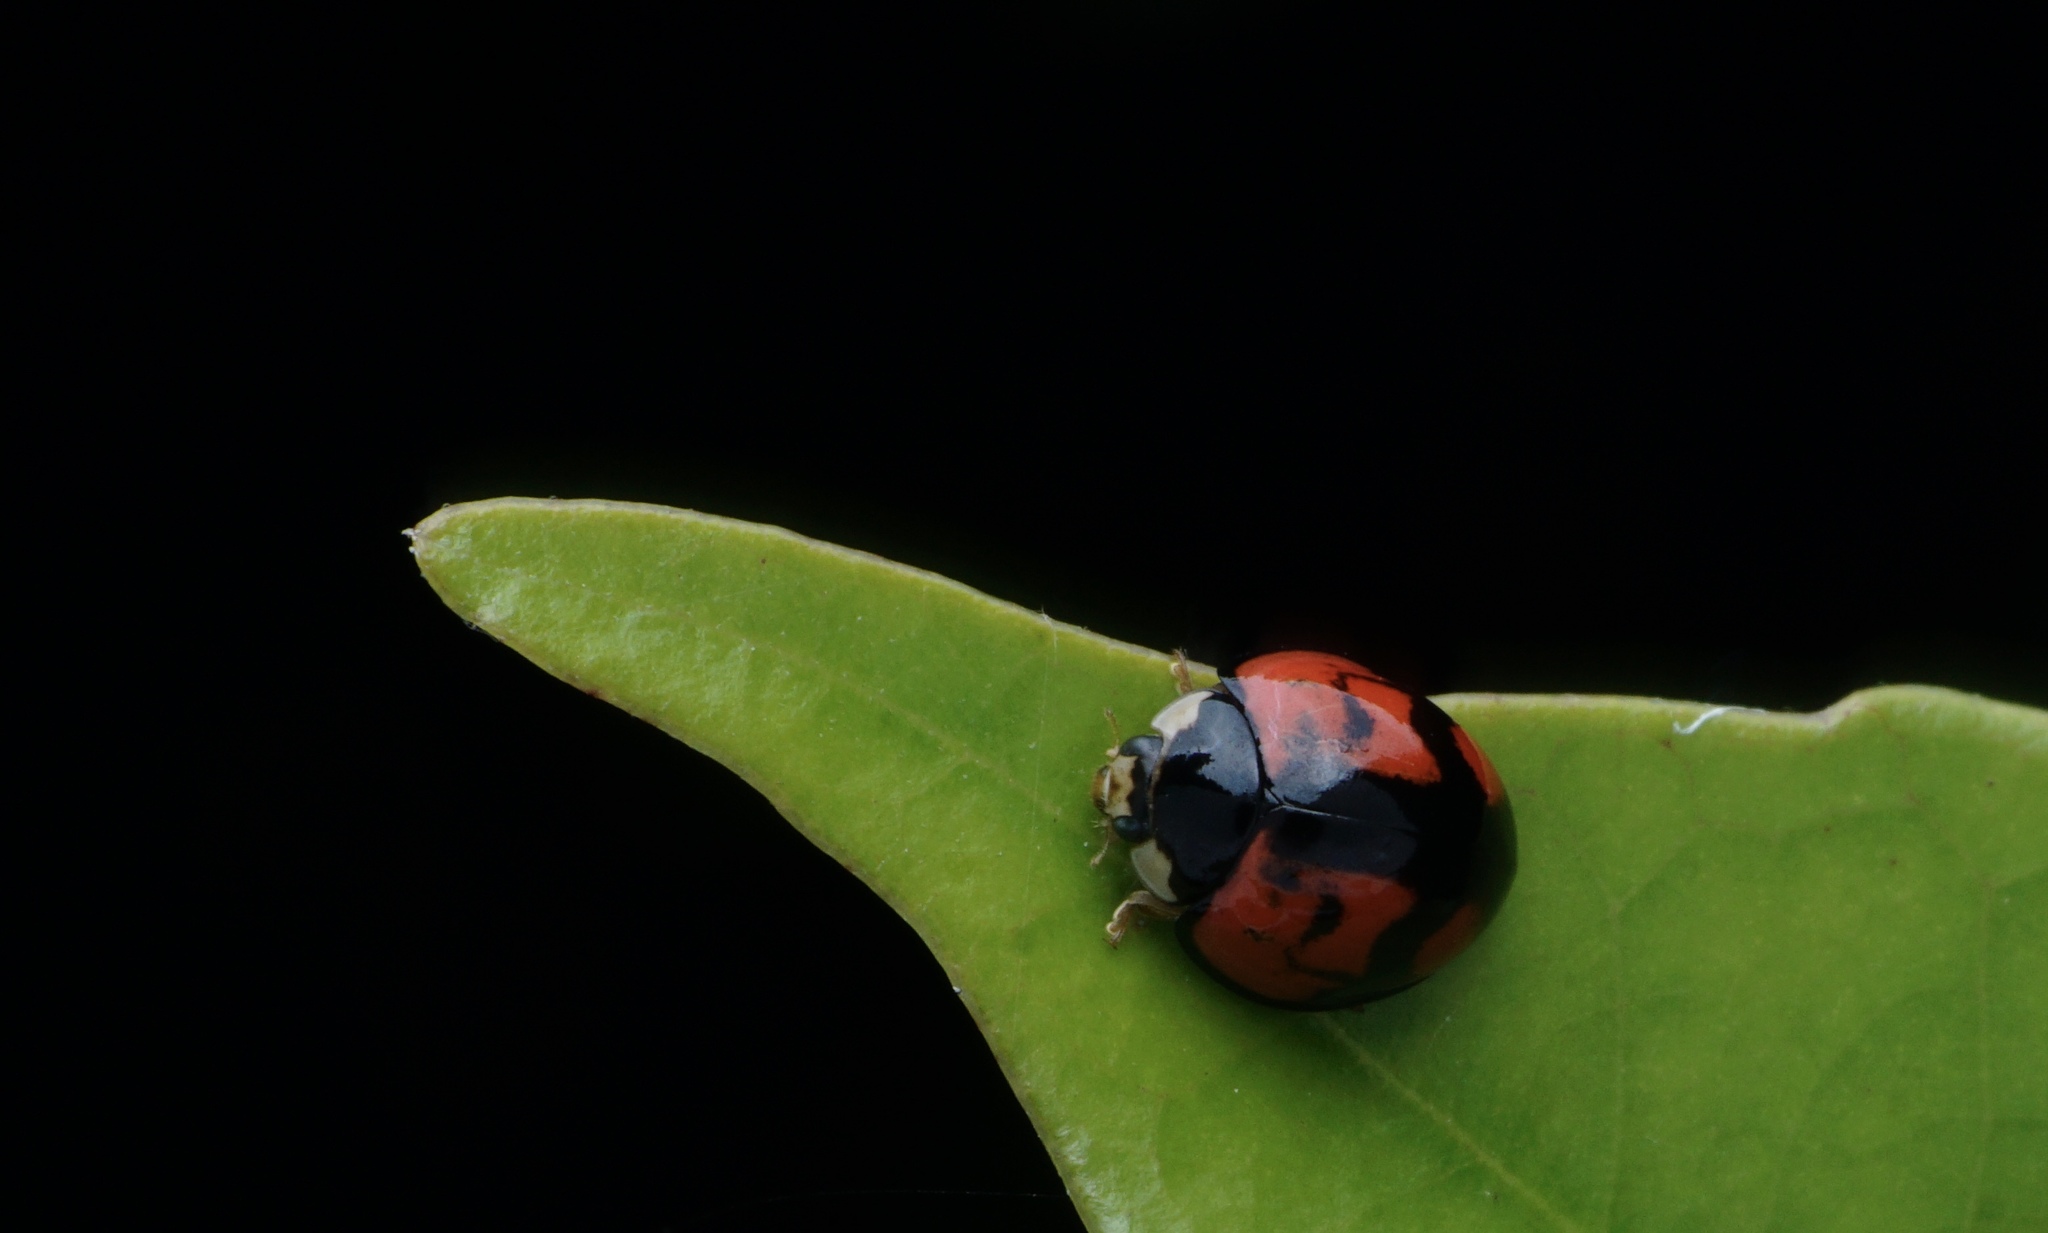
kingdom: Animalia
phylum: Arthropoda
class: Insecta
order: Coleoptera
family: Coccinellidae
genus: Cheilomenes
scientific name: Cheilomenes sexmaculata
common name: Ladybird beetle
